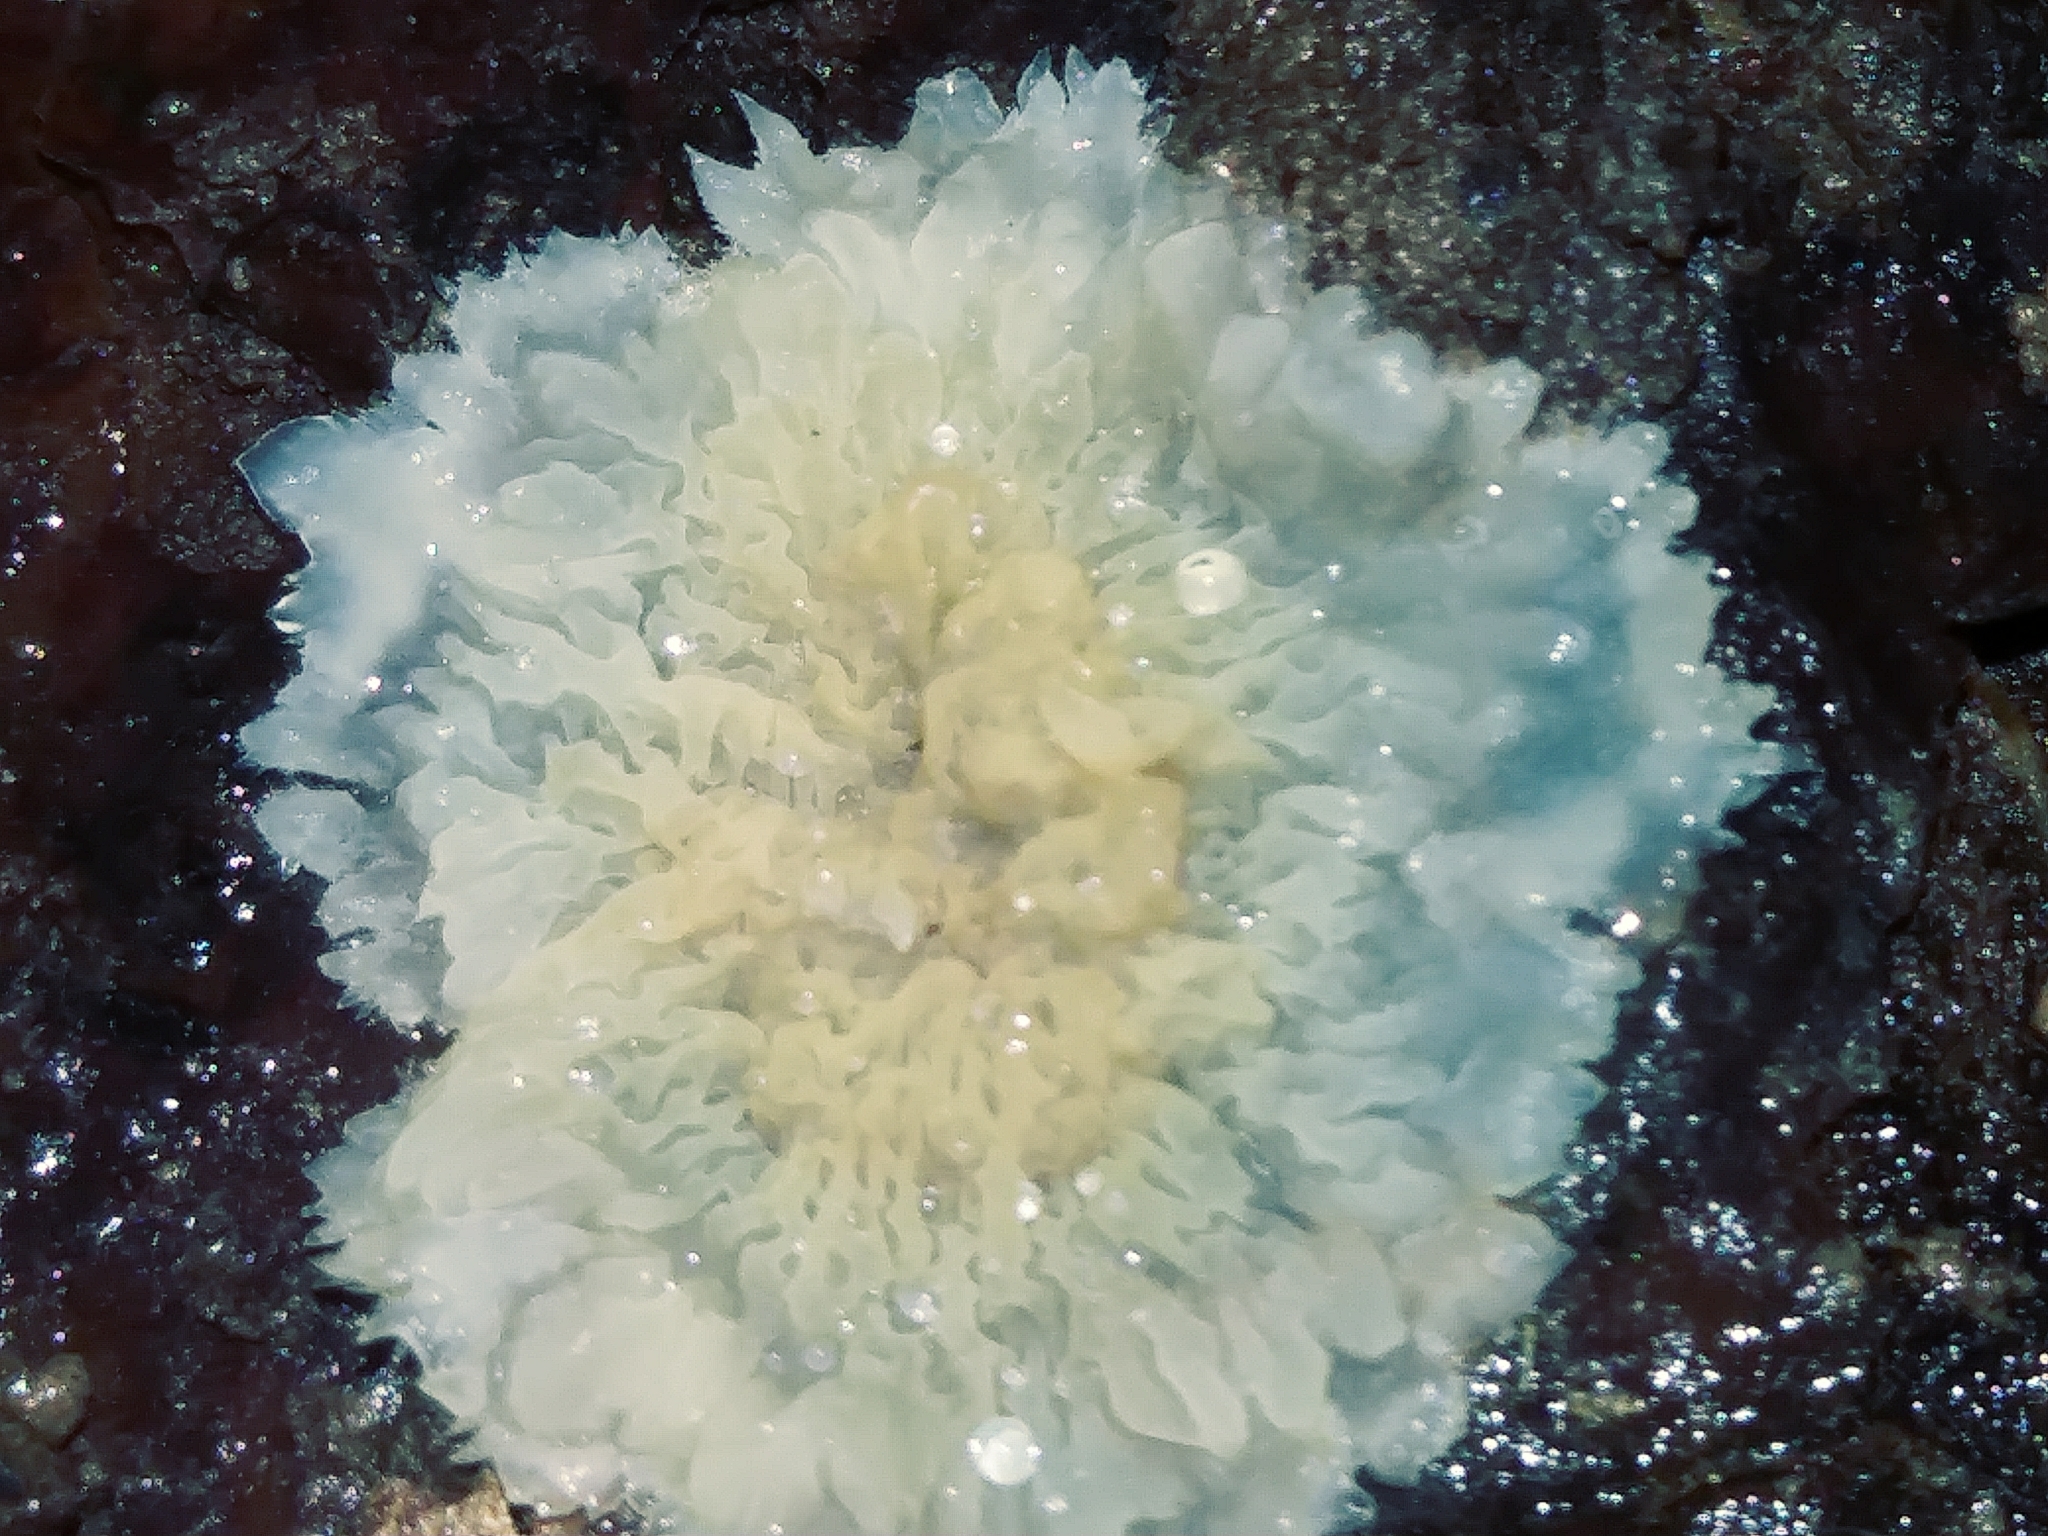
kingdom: Fungi
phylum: Basidiomycota
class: Agaricomycetes
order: Polyporales
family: Meruliaceae
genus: Phlebia
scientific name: Phlebia tremellosa
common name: Jelly rot
